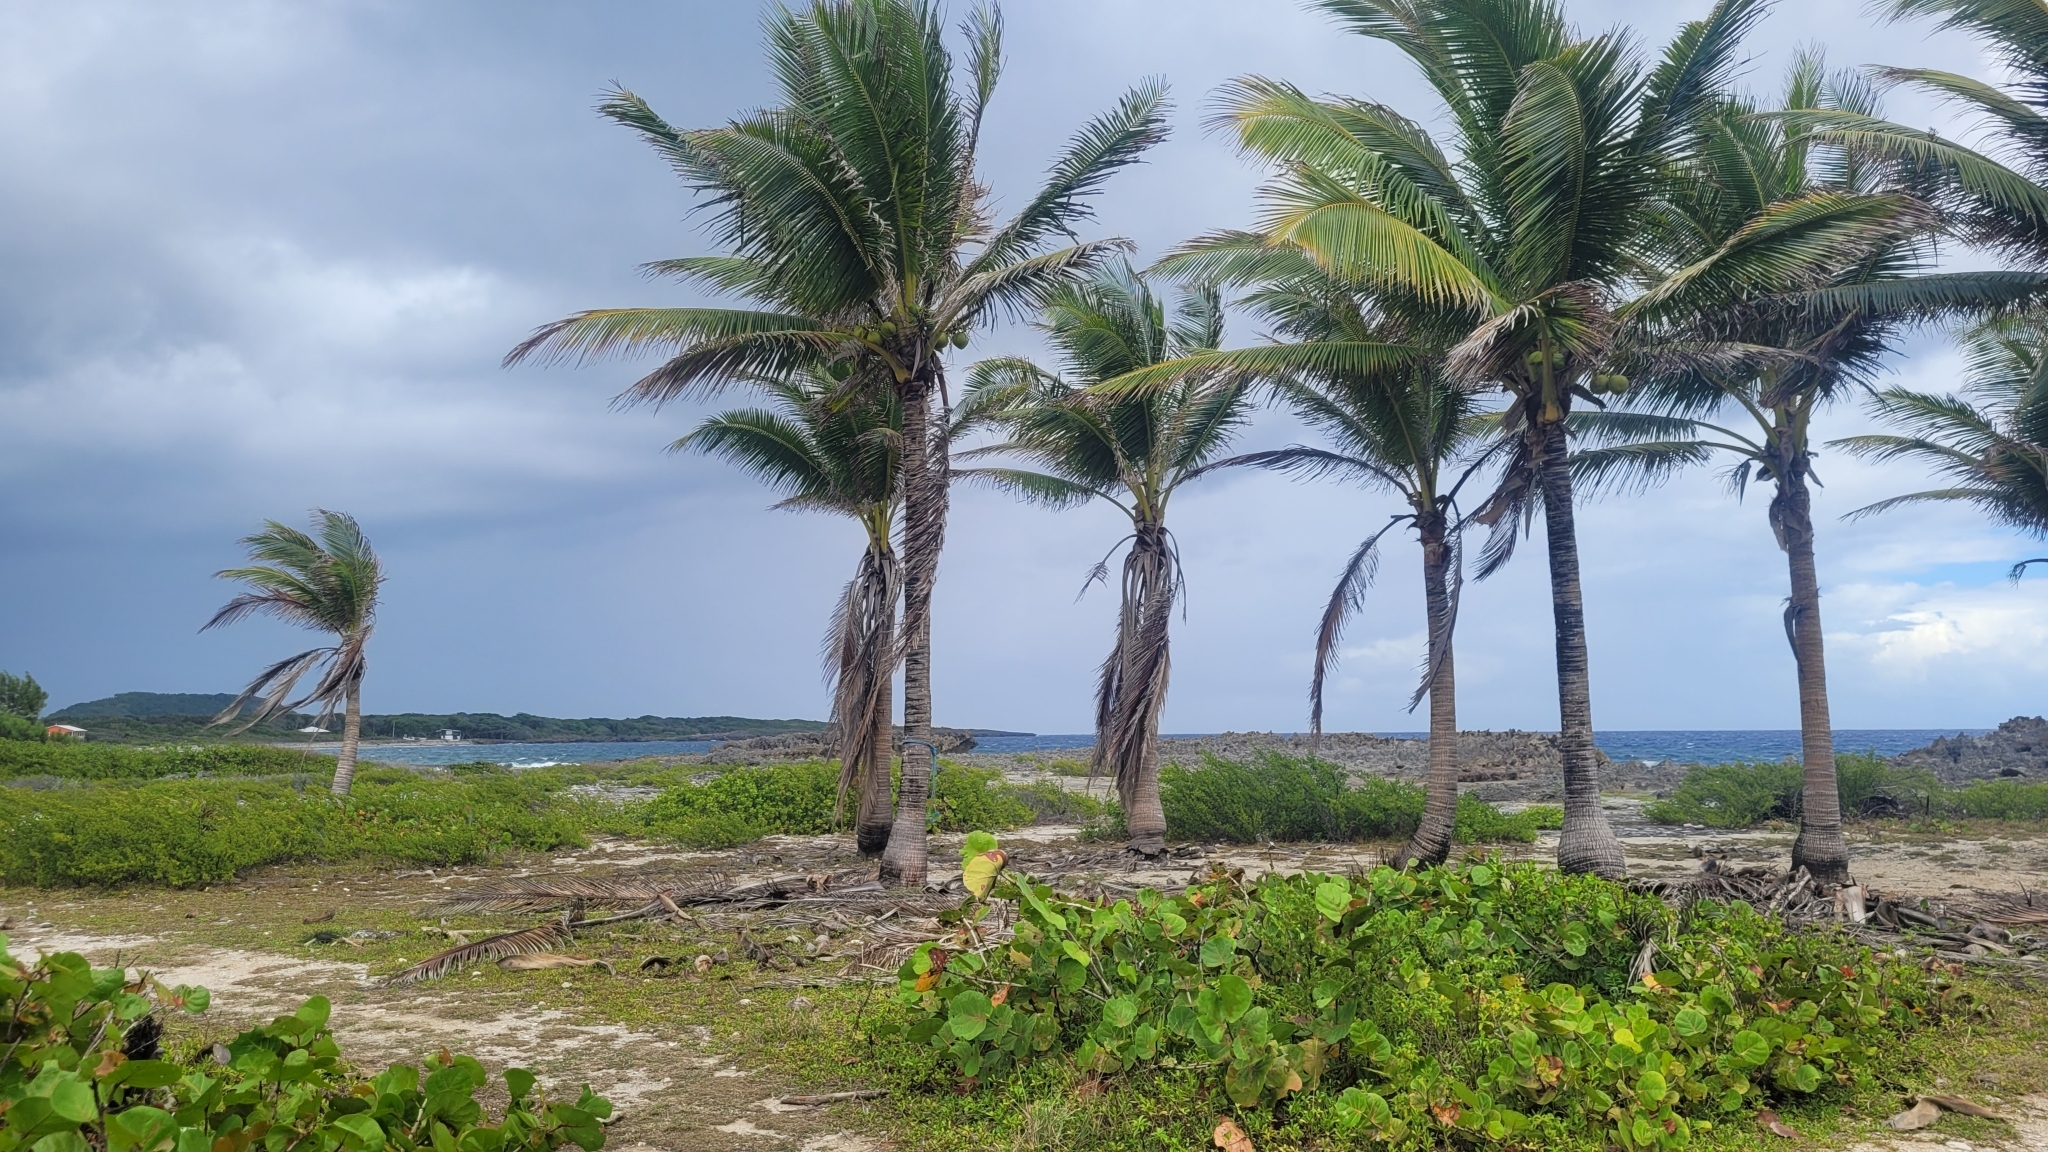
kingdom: Plantae
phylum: Tracheophyta
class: Liliopsida
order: Arecales
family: Arecaceae
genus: Cocos
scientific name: Cocos nucifera
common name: Coconut palm
